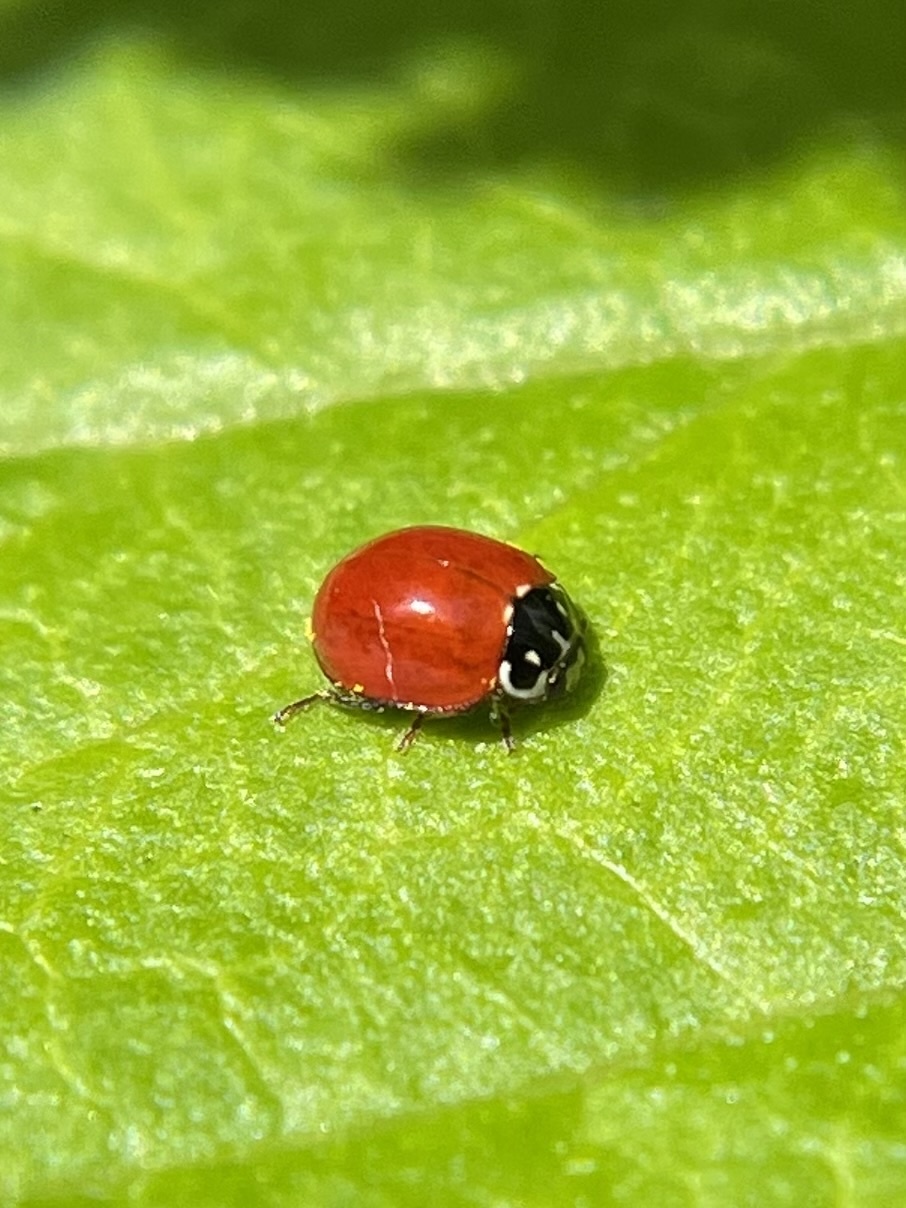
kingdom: Animalia
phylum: Arthropoda
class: Insecta
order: Coleoptera
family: Coccinellidae
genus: Cycloneda
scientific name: Cycloneda sanguinea
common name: Ladybird beetle
